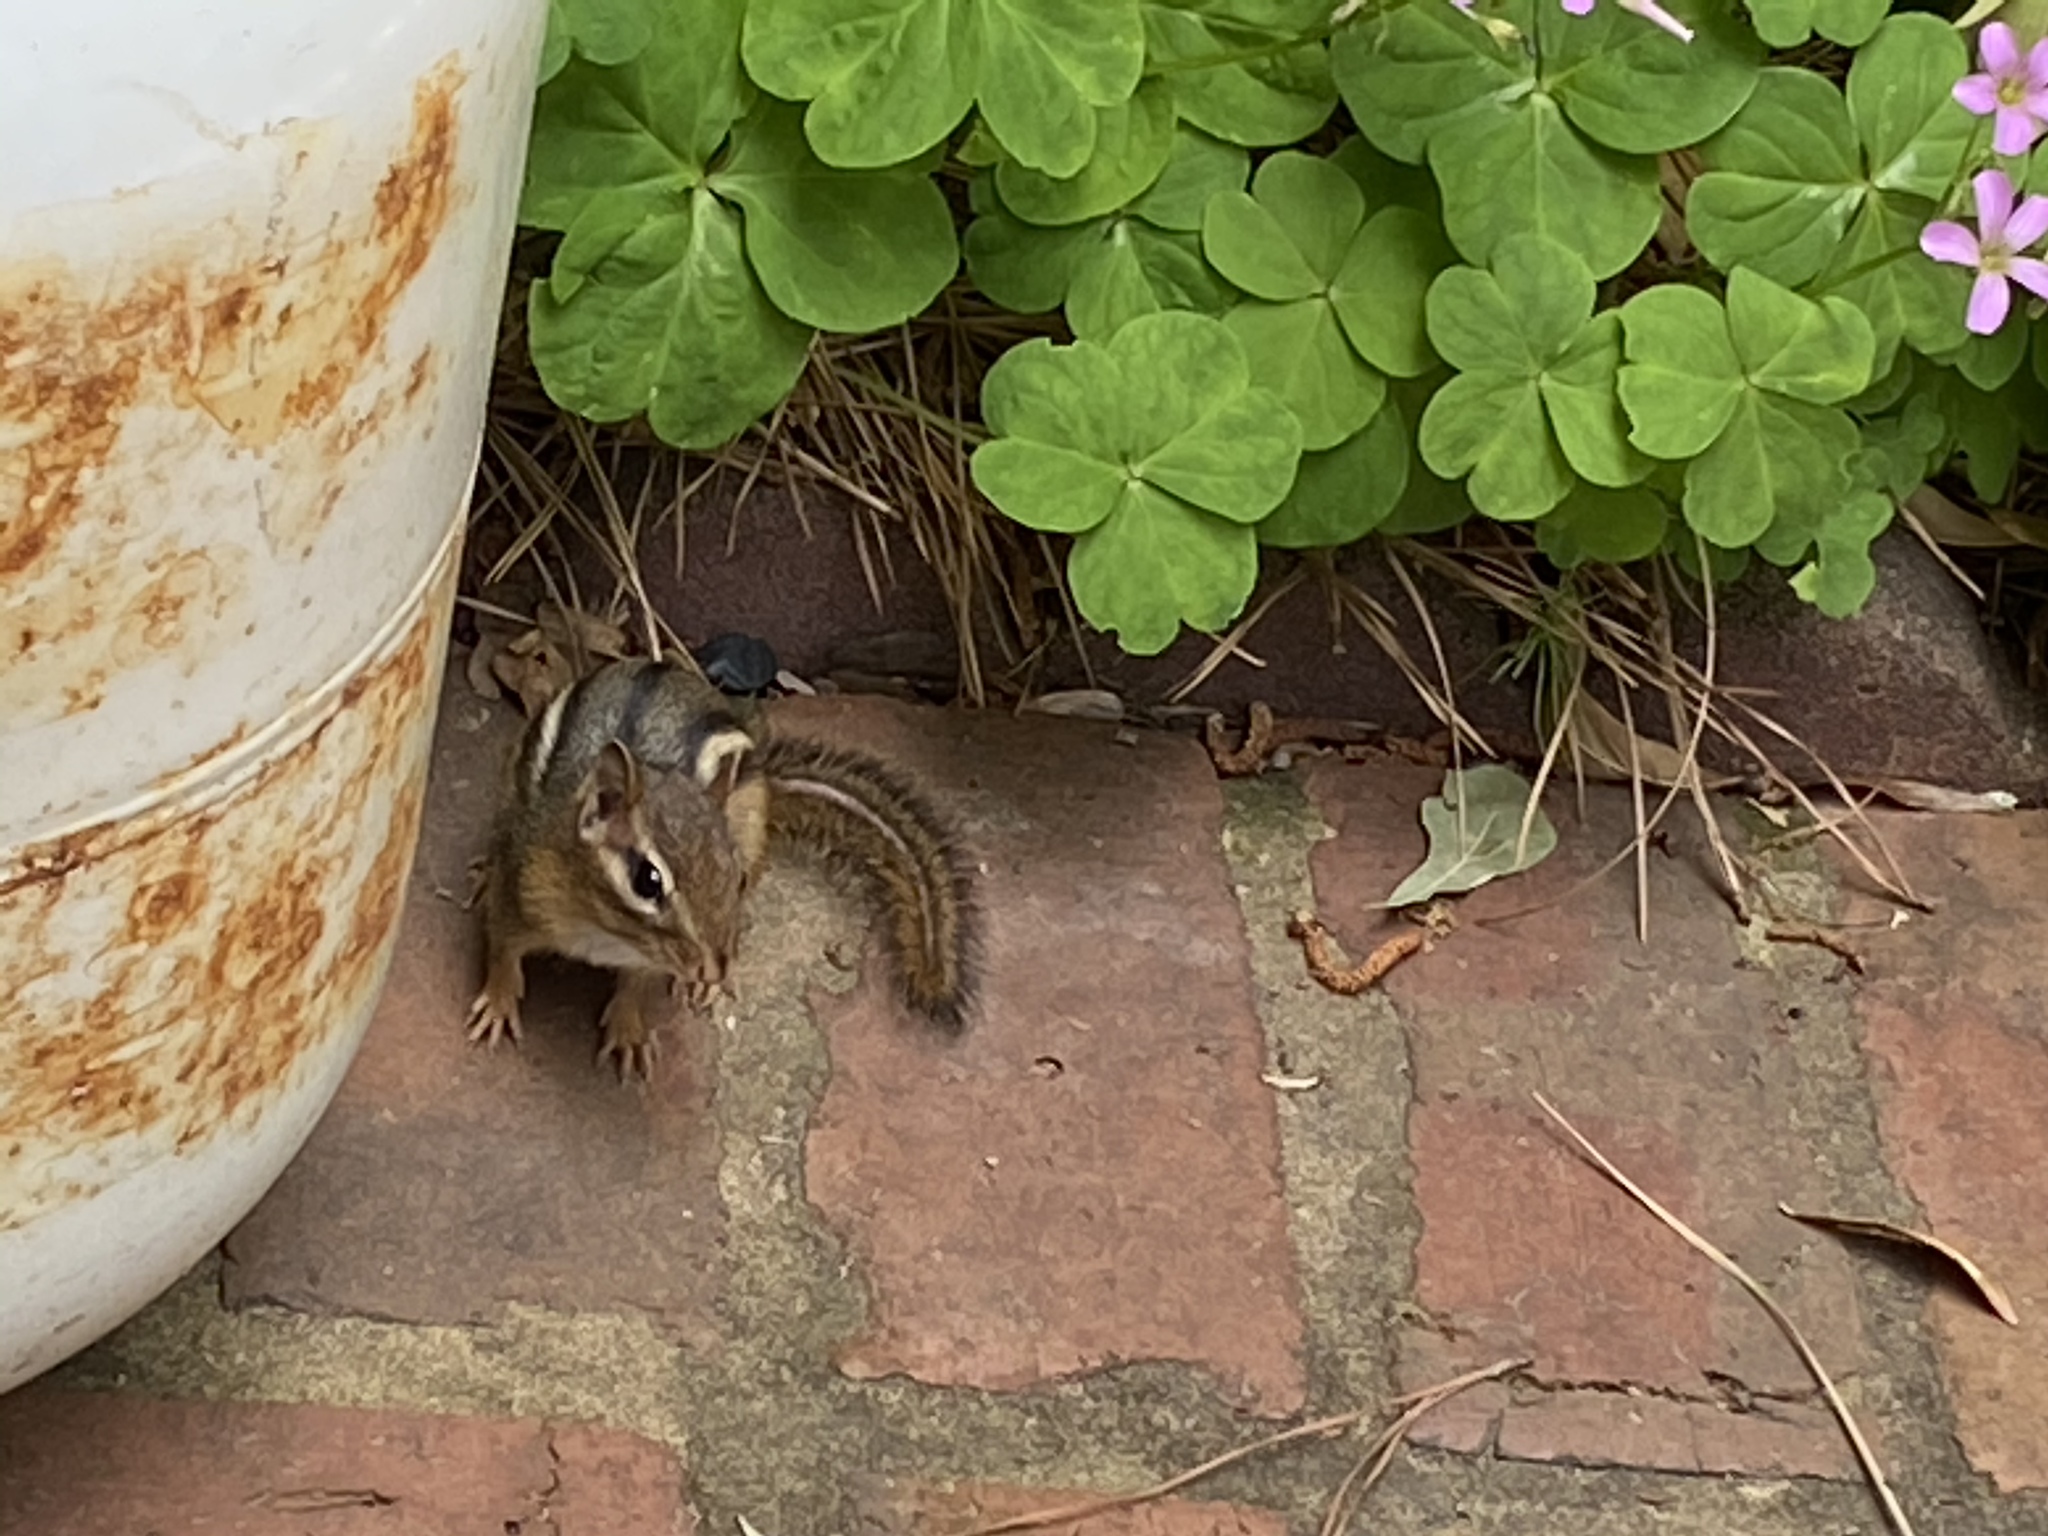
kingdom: Animalia
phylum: Chordata
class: Mammalia
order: Rodentia
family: Sciuridae
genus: Tamias
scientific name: Tamias striatus
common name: Eastern chipmunk
